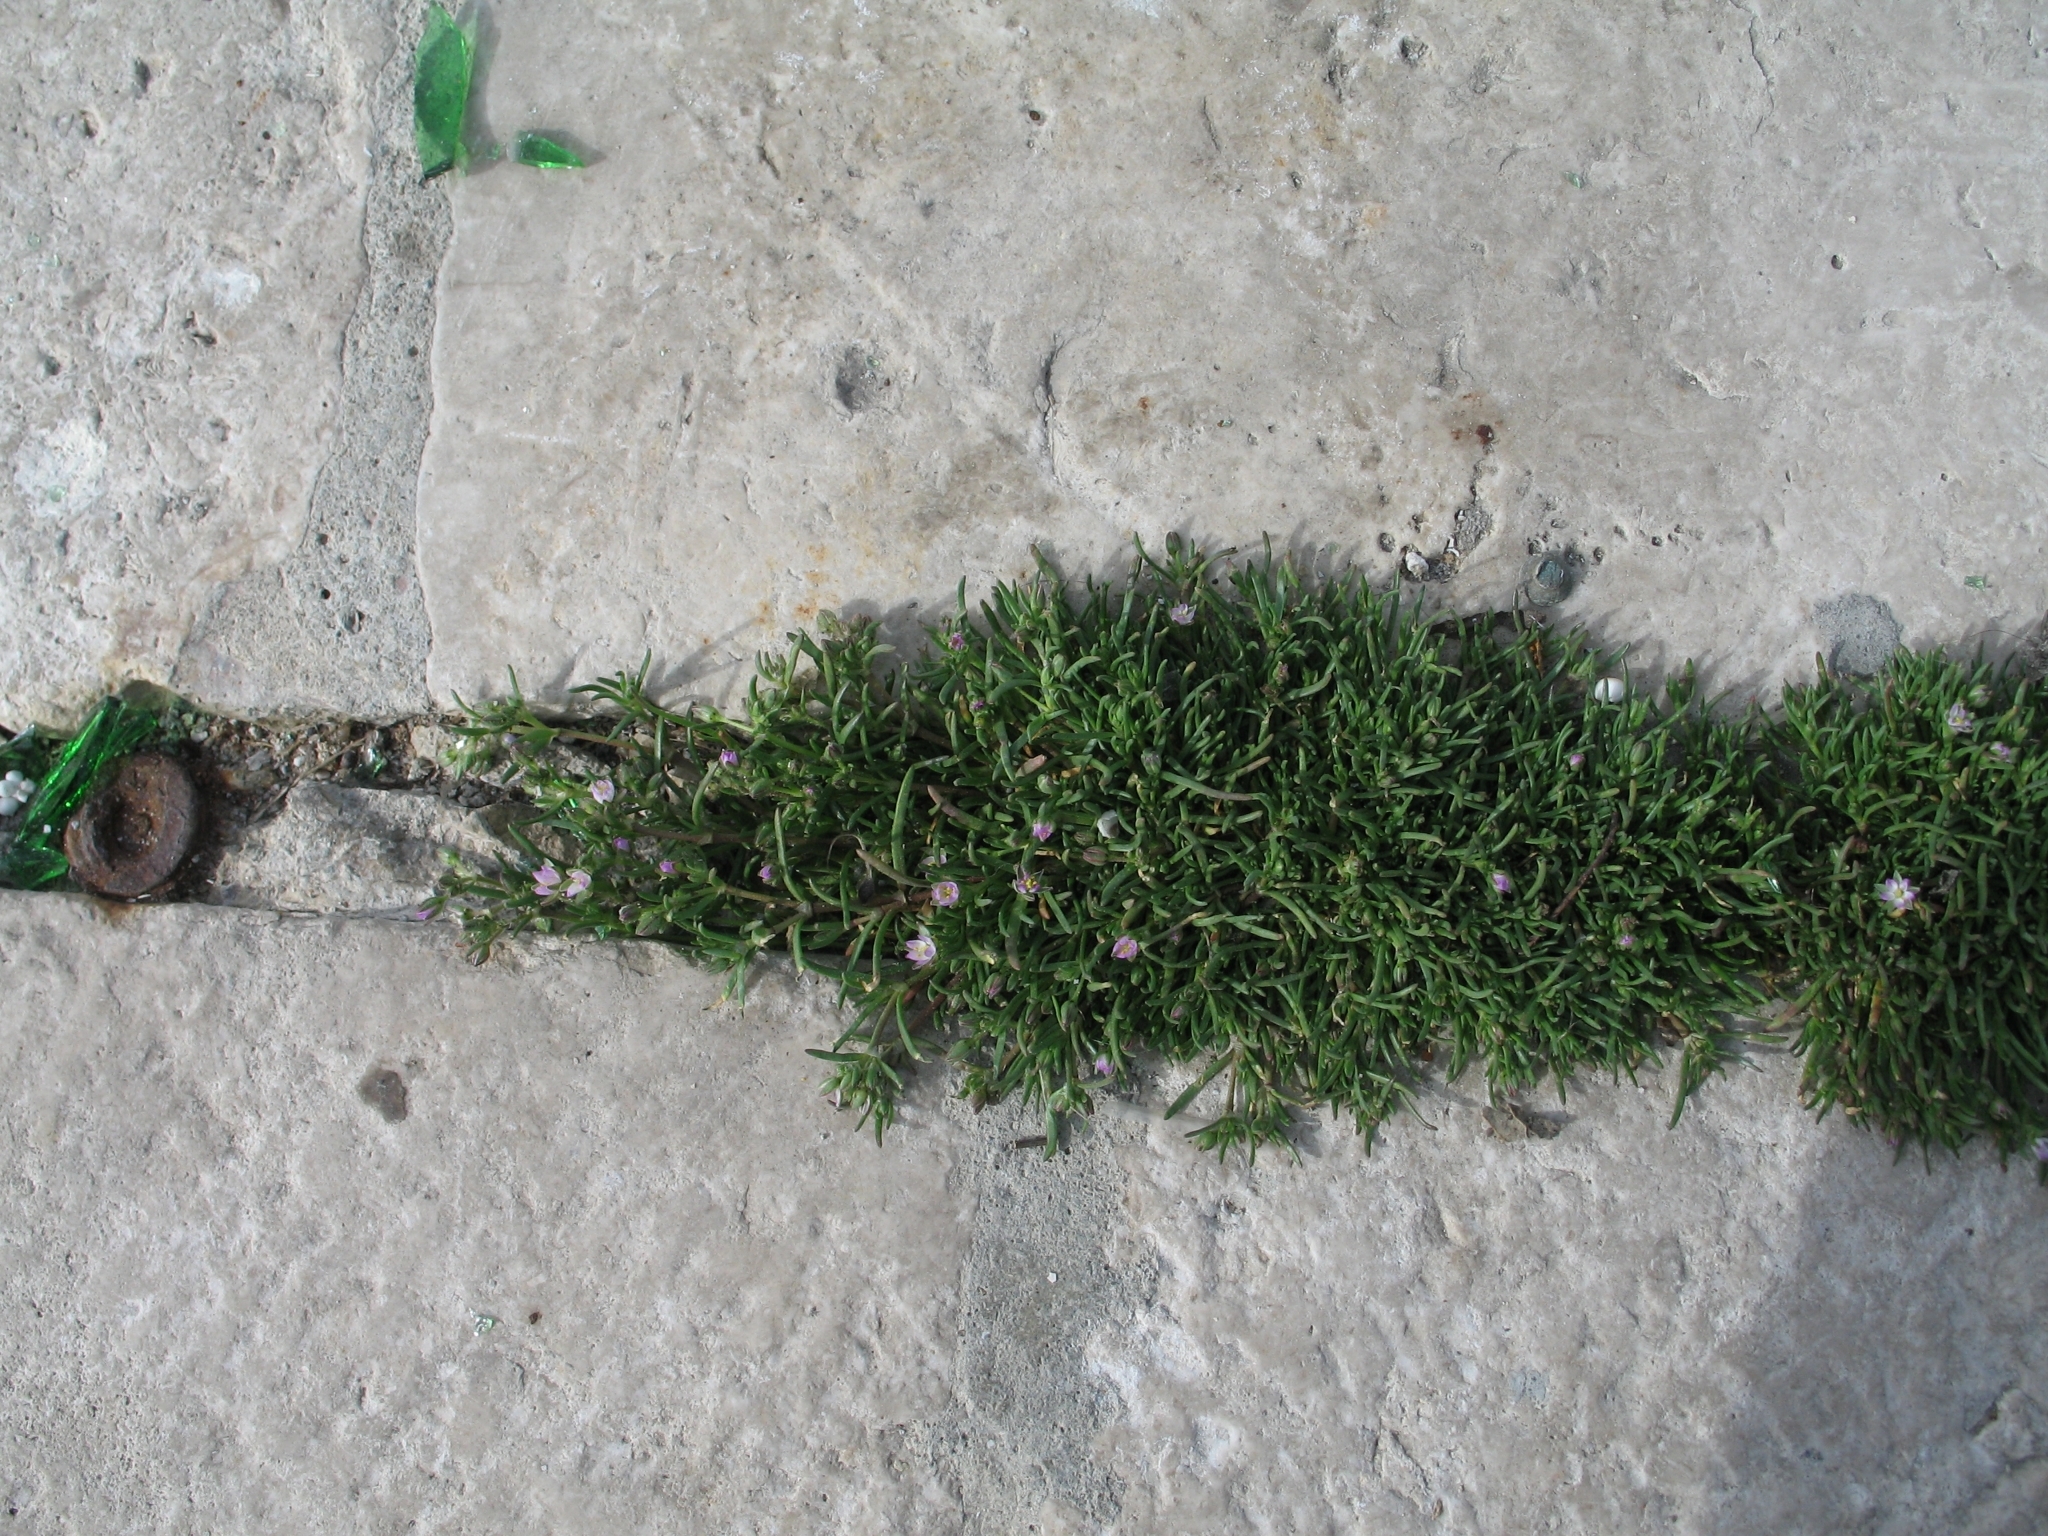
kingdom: Plantae
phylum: Tracheophyta
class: Magnoliopsida
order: Caryophyllales
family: Caryophyllaceae
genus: Spergularia
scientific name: Spergularia marina
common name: Lesser sea-spurrey
